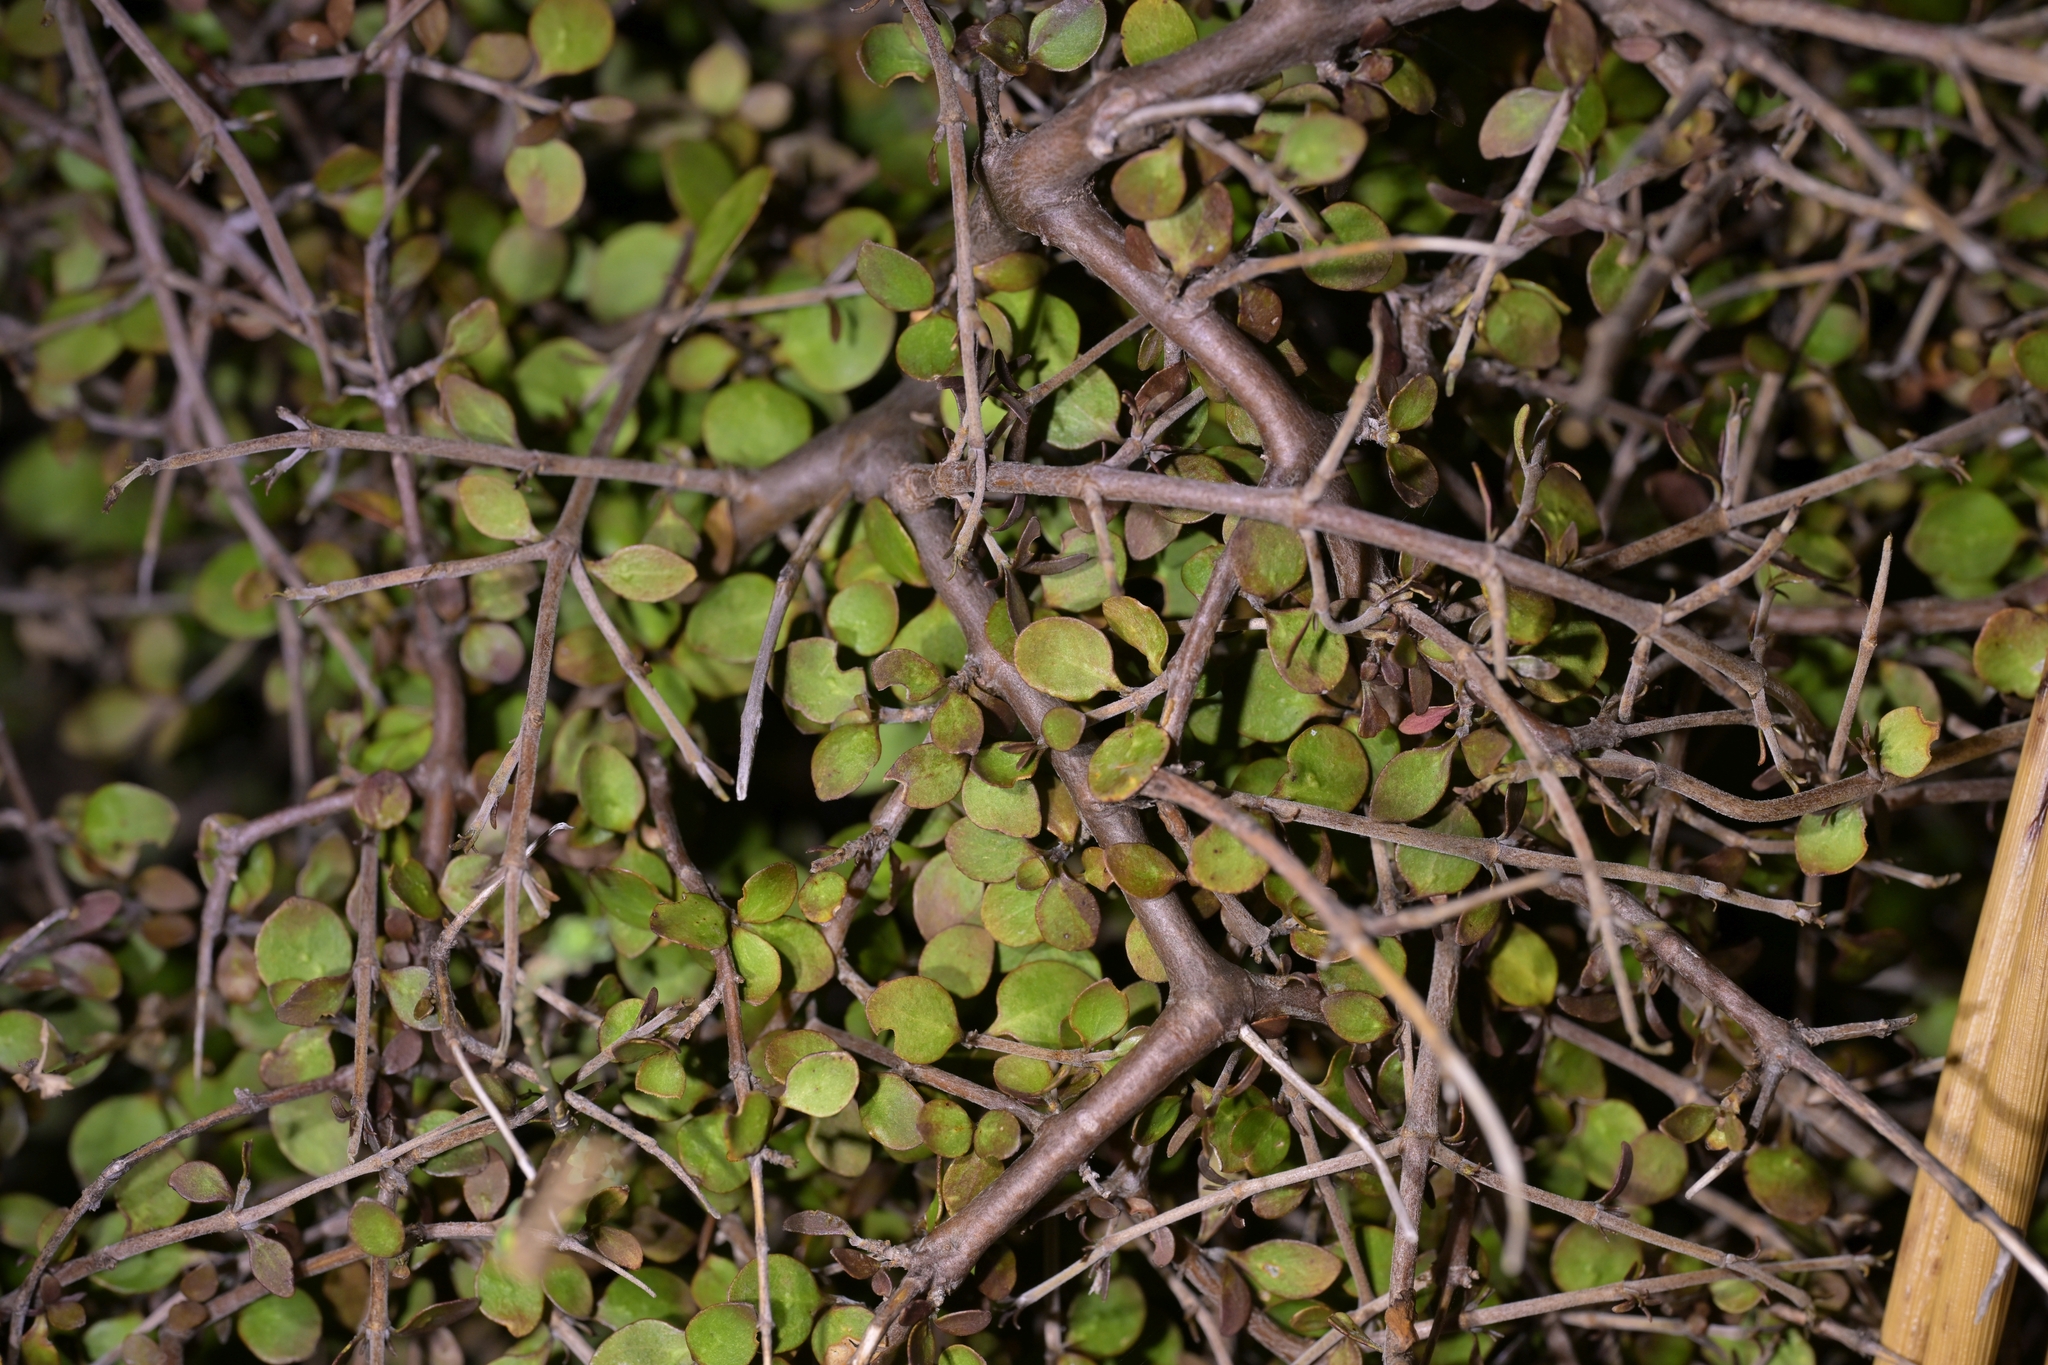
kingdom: Plantae
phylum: Tracheophyta
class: Magnoliopsida
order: Gentianales
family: Rubiaceae
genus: Coprosma
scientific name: Coprosma rhamnoides
